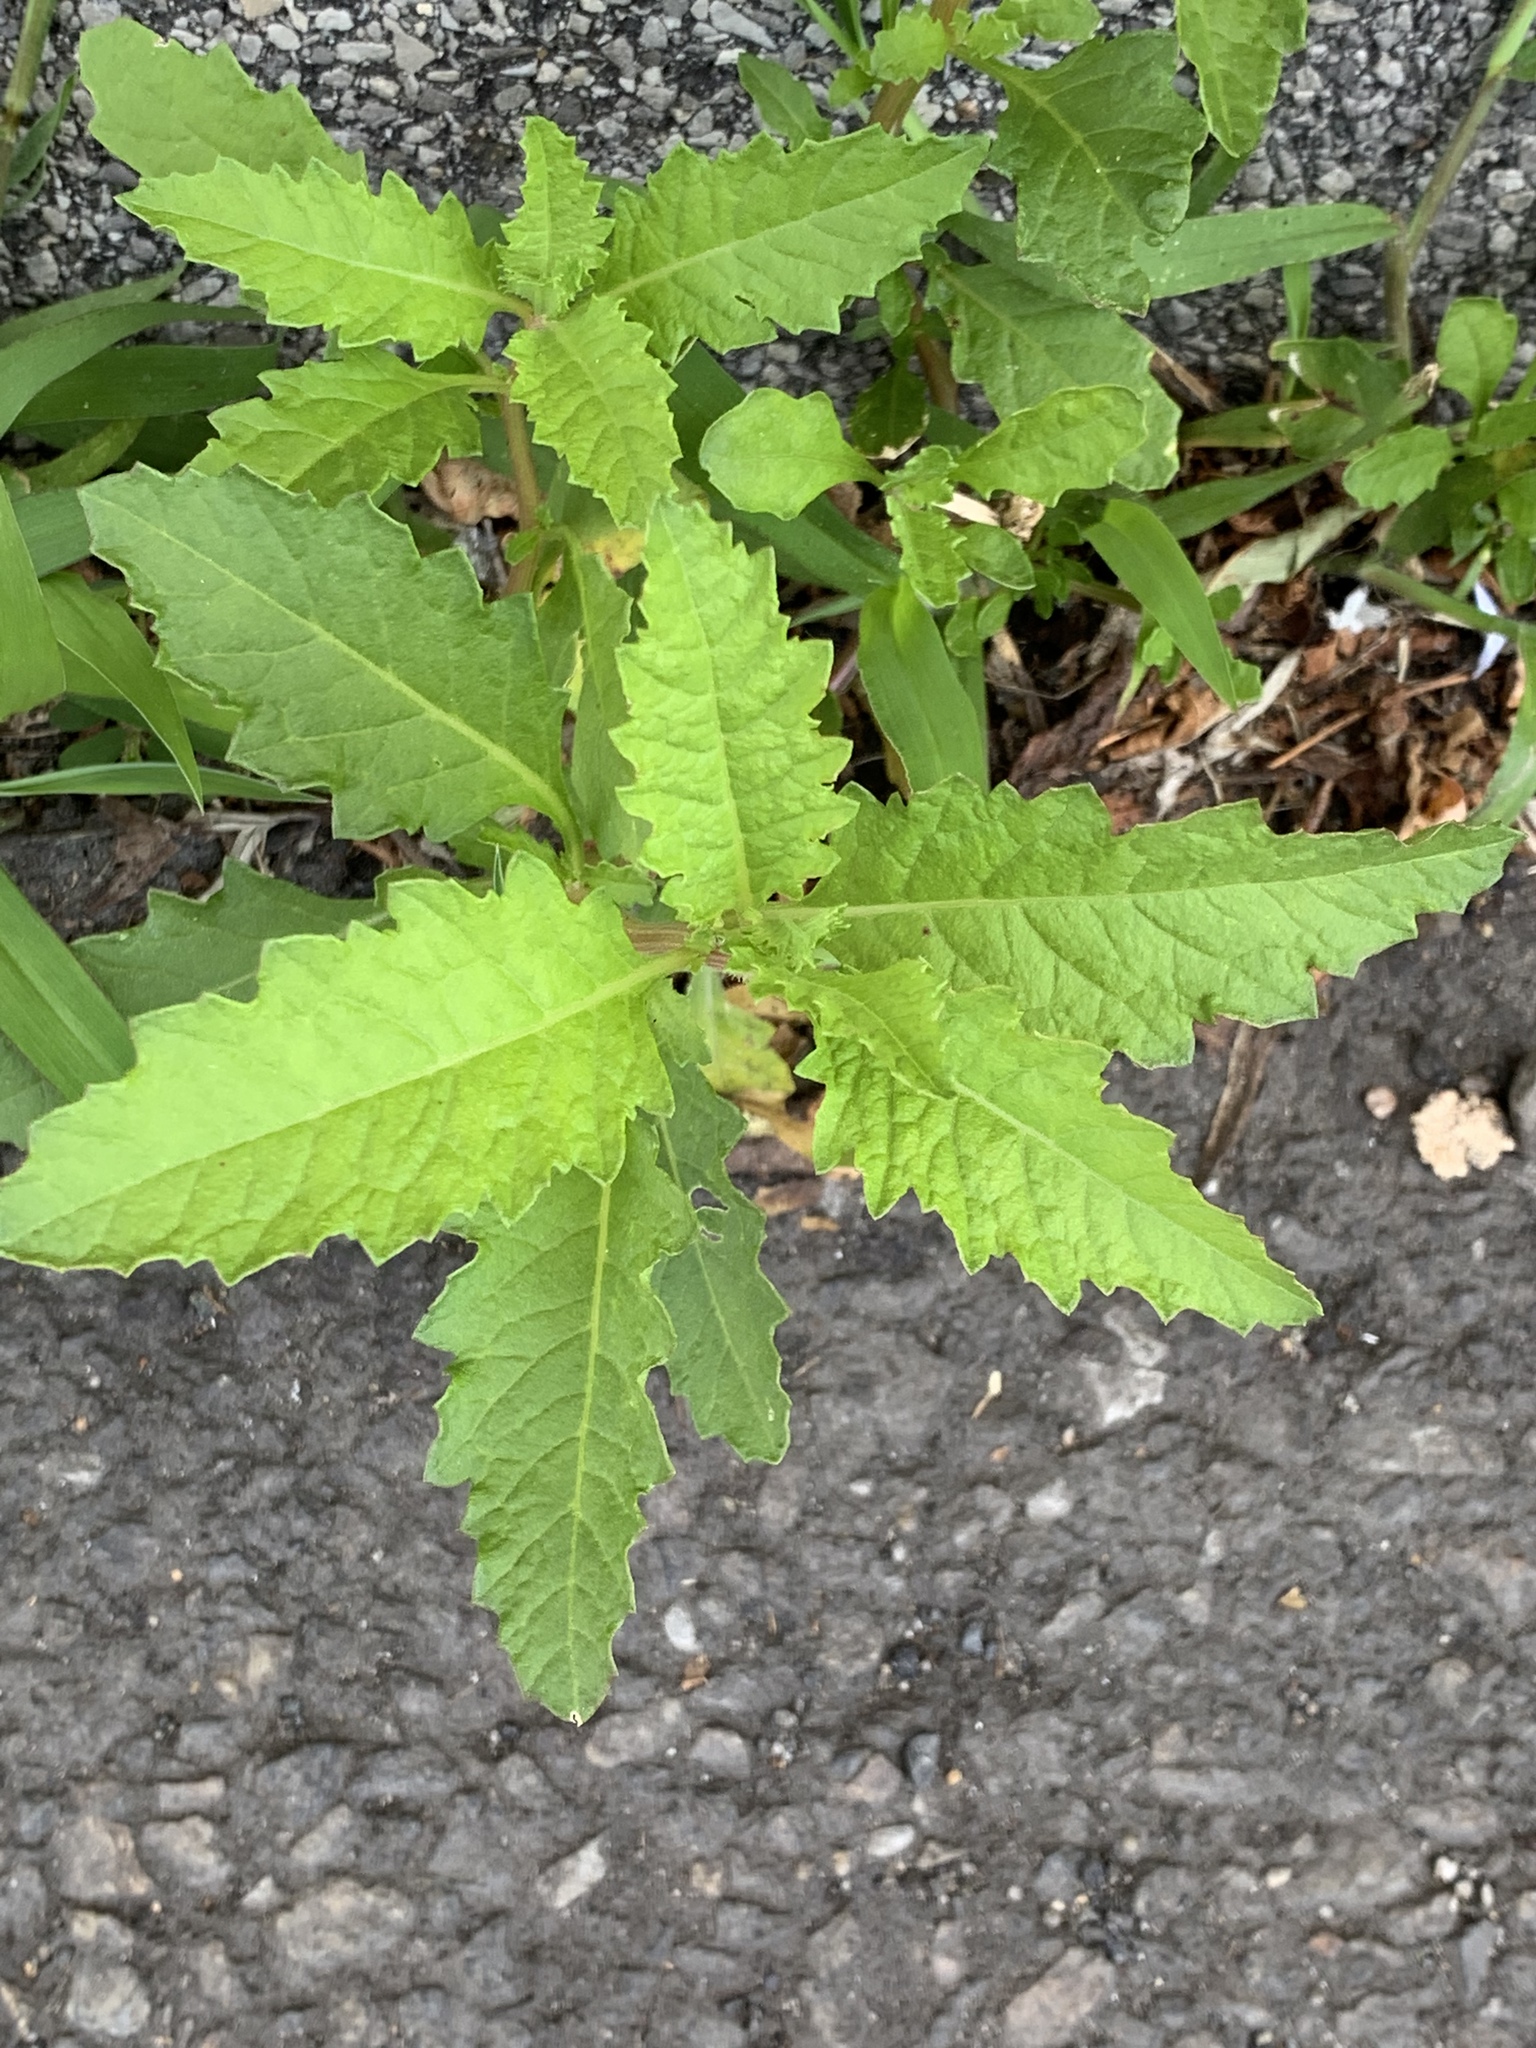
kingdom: Plantae
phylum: Tracheophyta
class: Magnoliopsida
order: Caryophyllales
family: Amaranthaceae
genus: Dysphania
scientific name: Dysphania ambrosioides
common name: Wormseed
